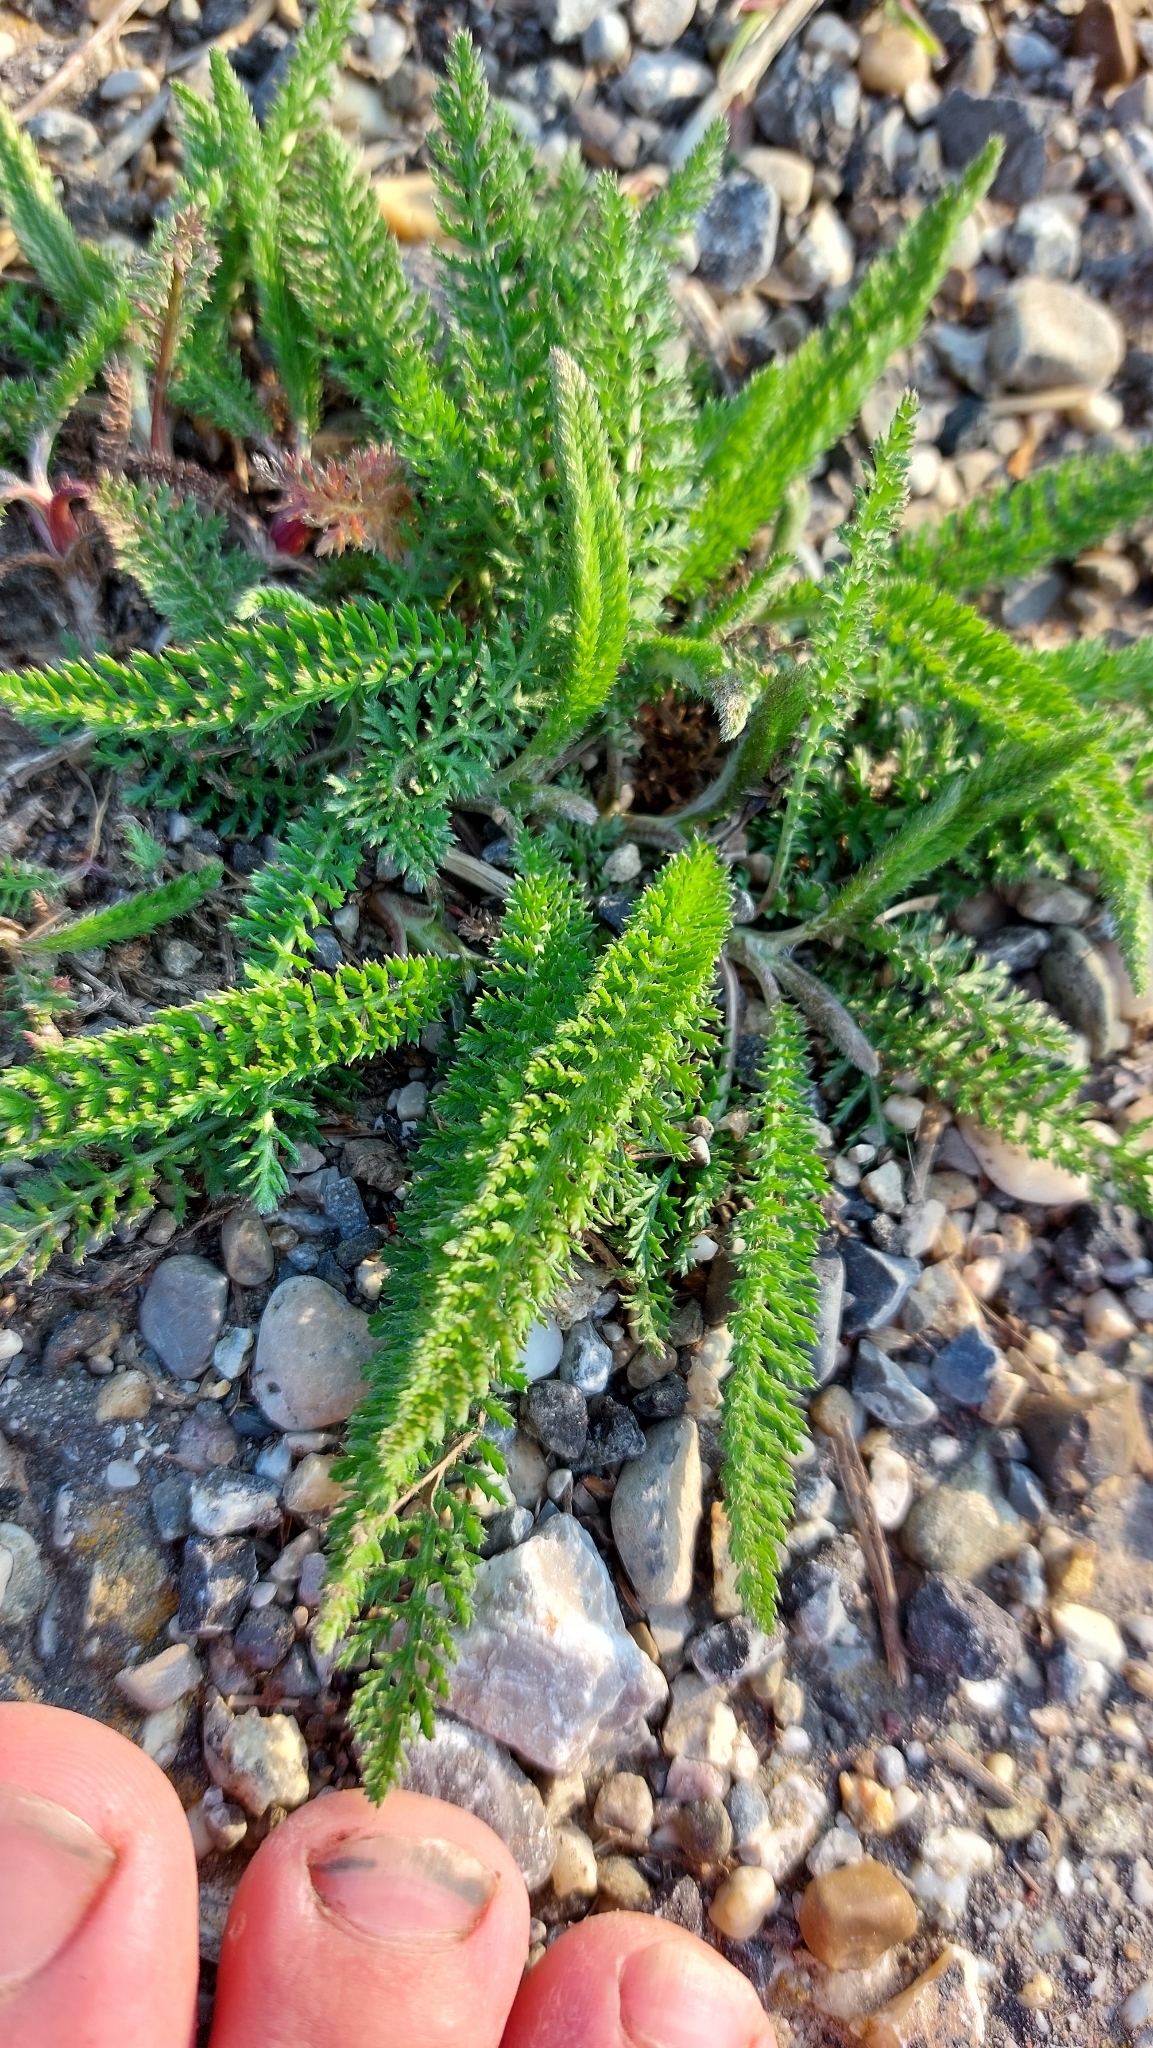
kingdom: Plantae
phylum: Tracheophyta
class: Magnoliopsida
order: Asterales
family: Asteraceae
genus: Achillea
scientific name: Achillea millefolium
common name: Yarrow
